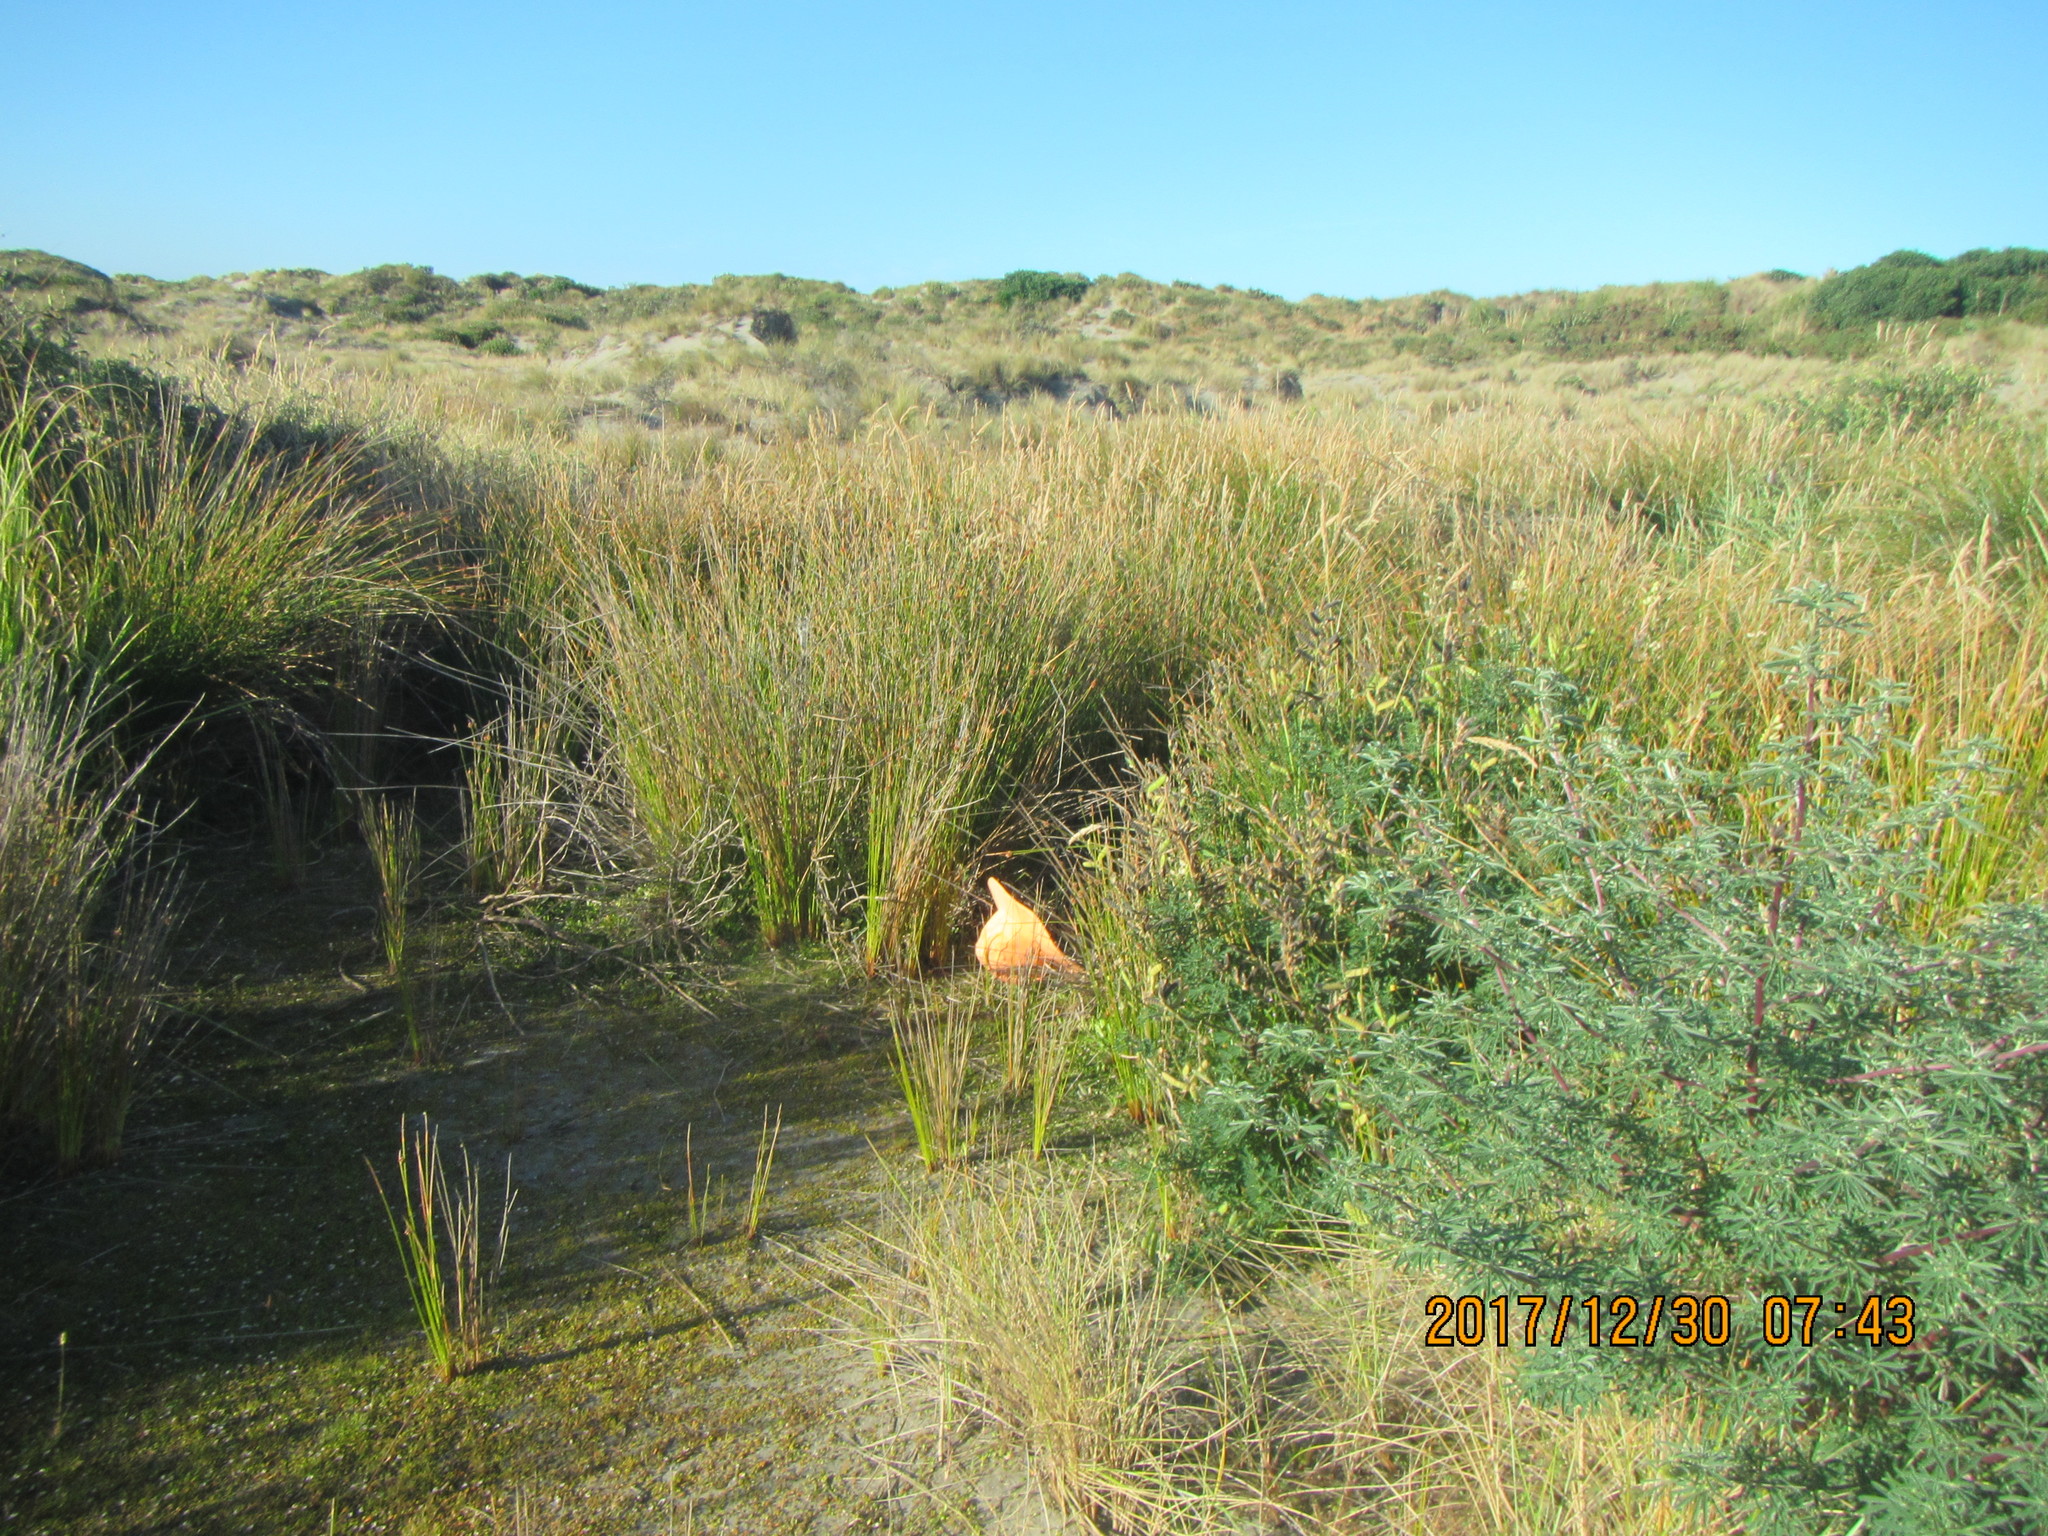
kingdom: Plantae
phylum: Tracheophyta
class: Magnoliopsida
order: Asterales
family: Campanulaceae
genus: Lobelia
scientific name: Lobelia anceps
